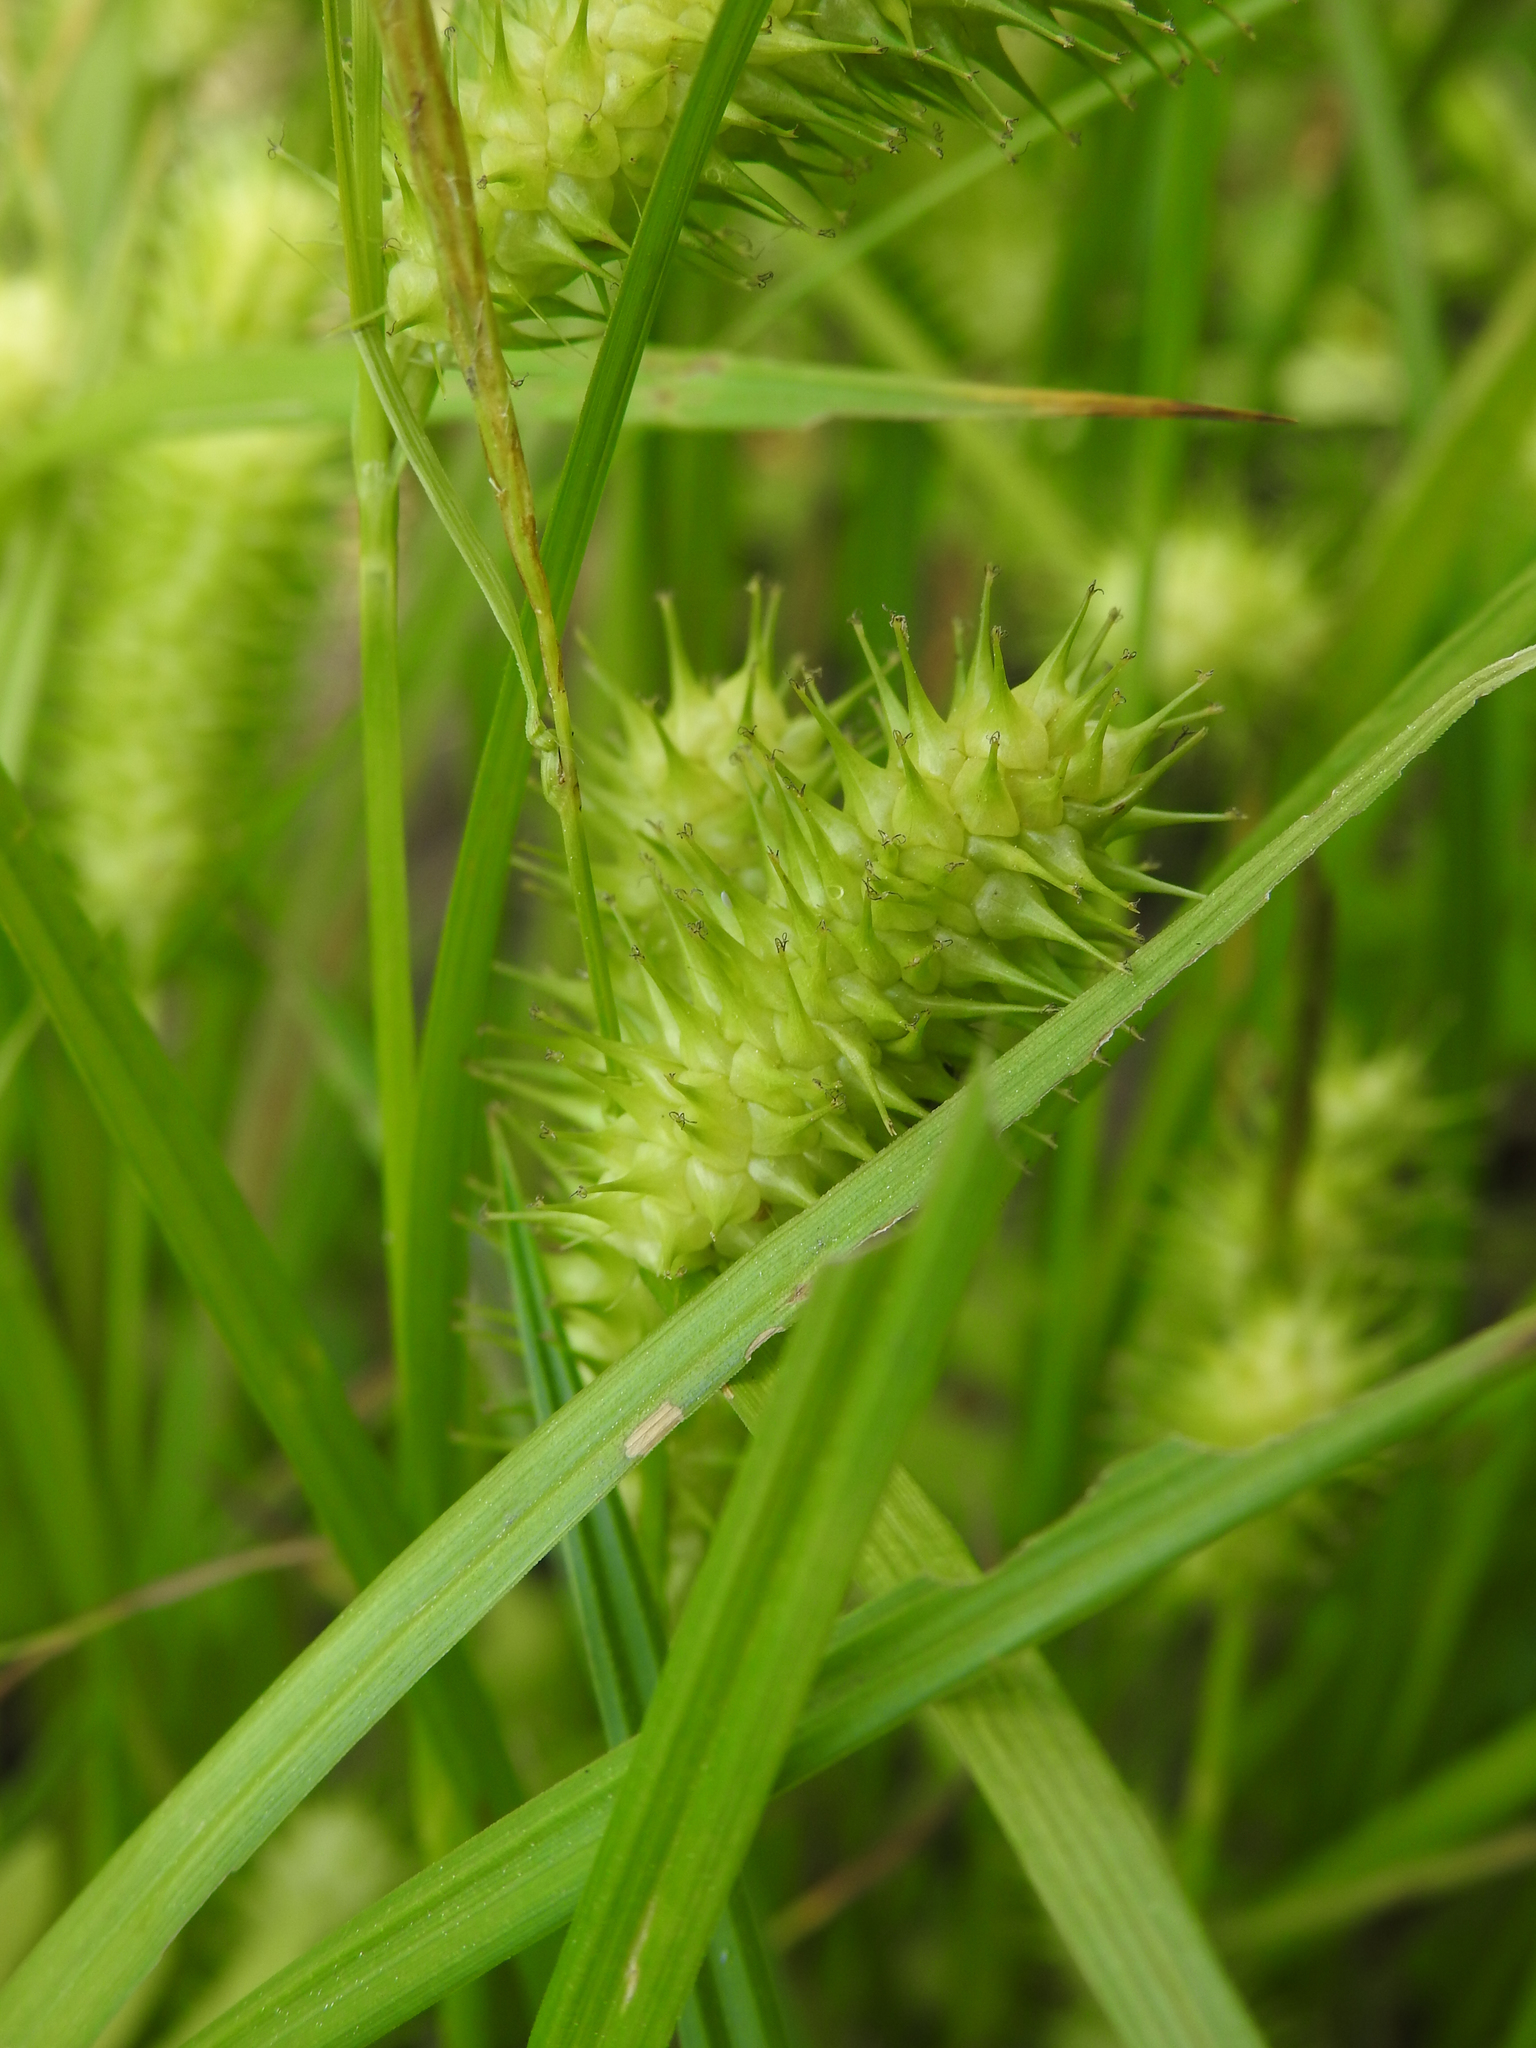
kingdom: Plantae
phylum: Tracheophyta
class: Liliopsida
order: Poales
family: Cyperaceae
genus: Carex
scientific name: Carex lurida
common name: Sallow sedge
